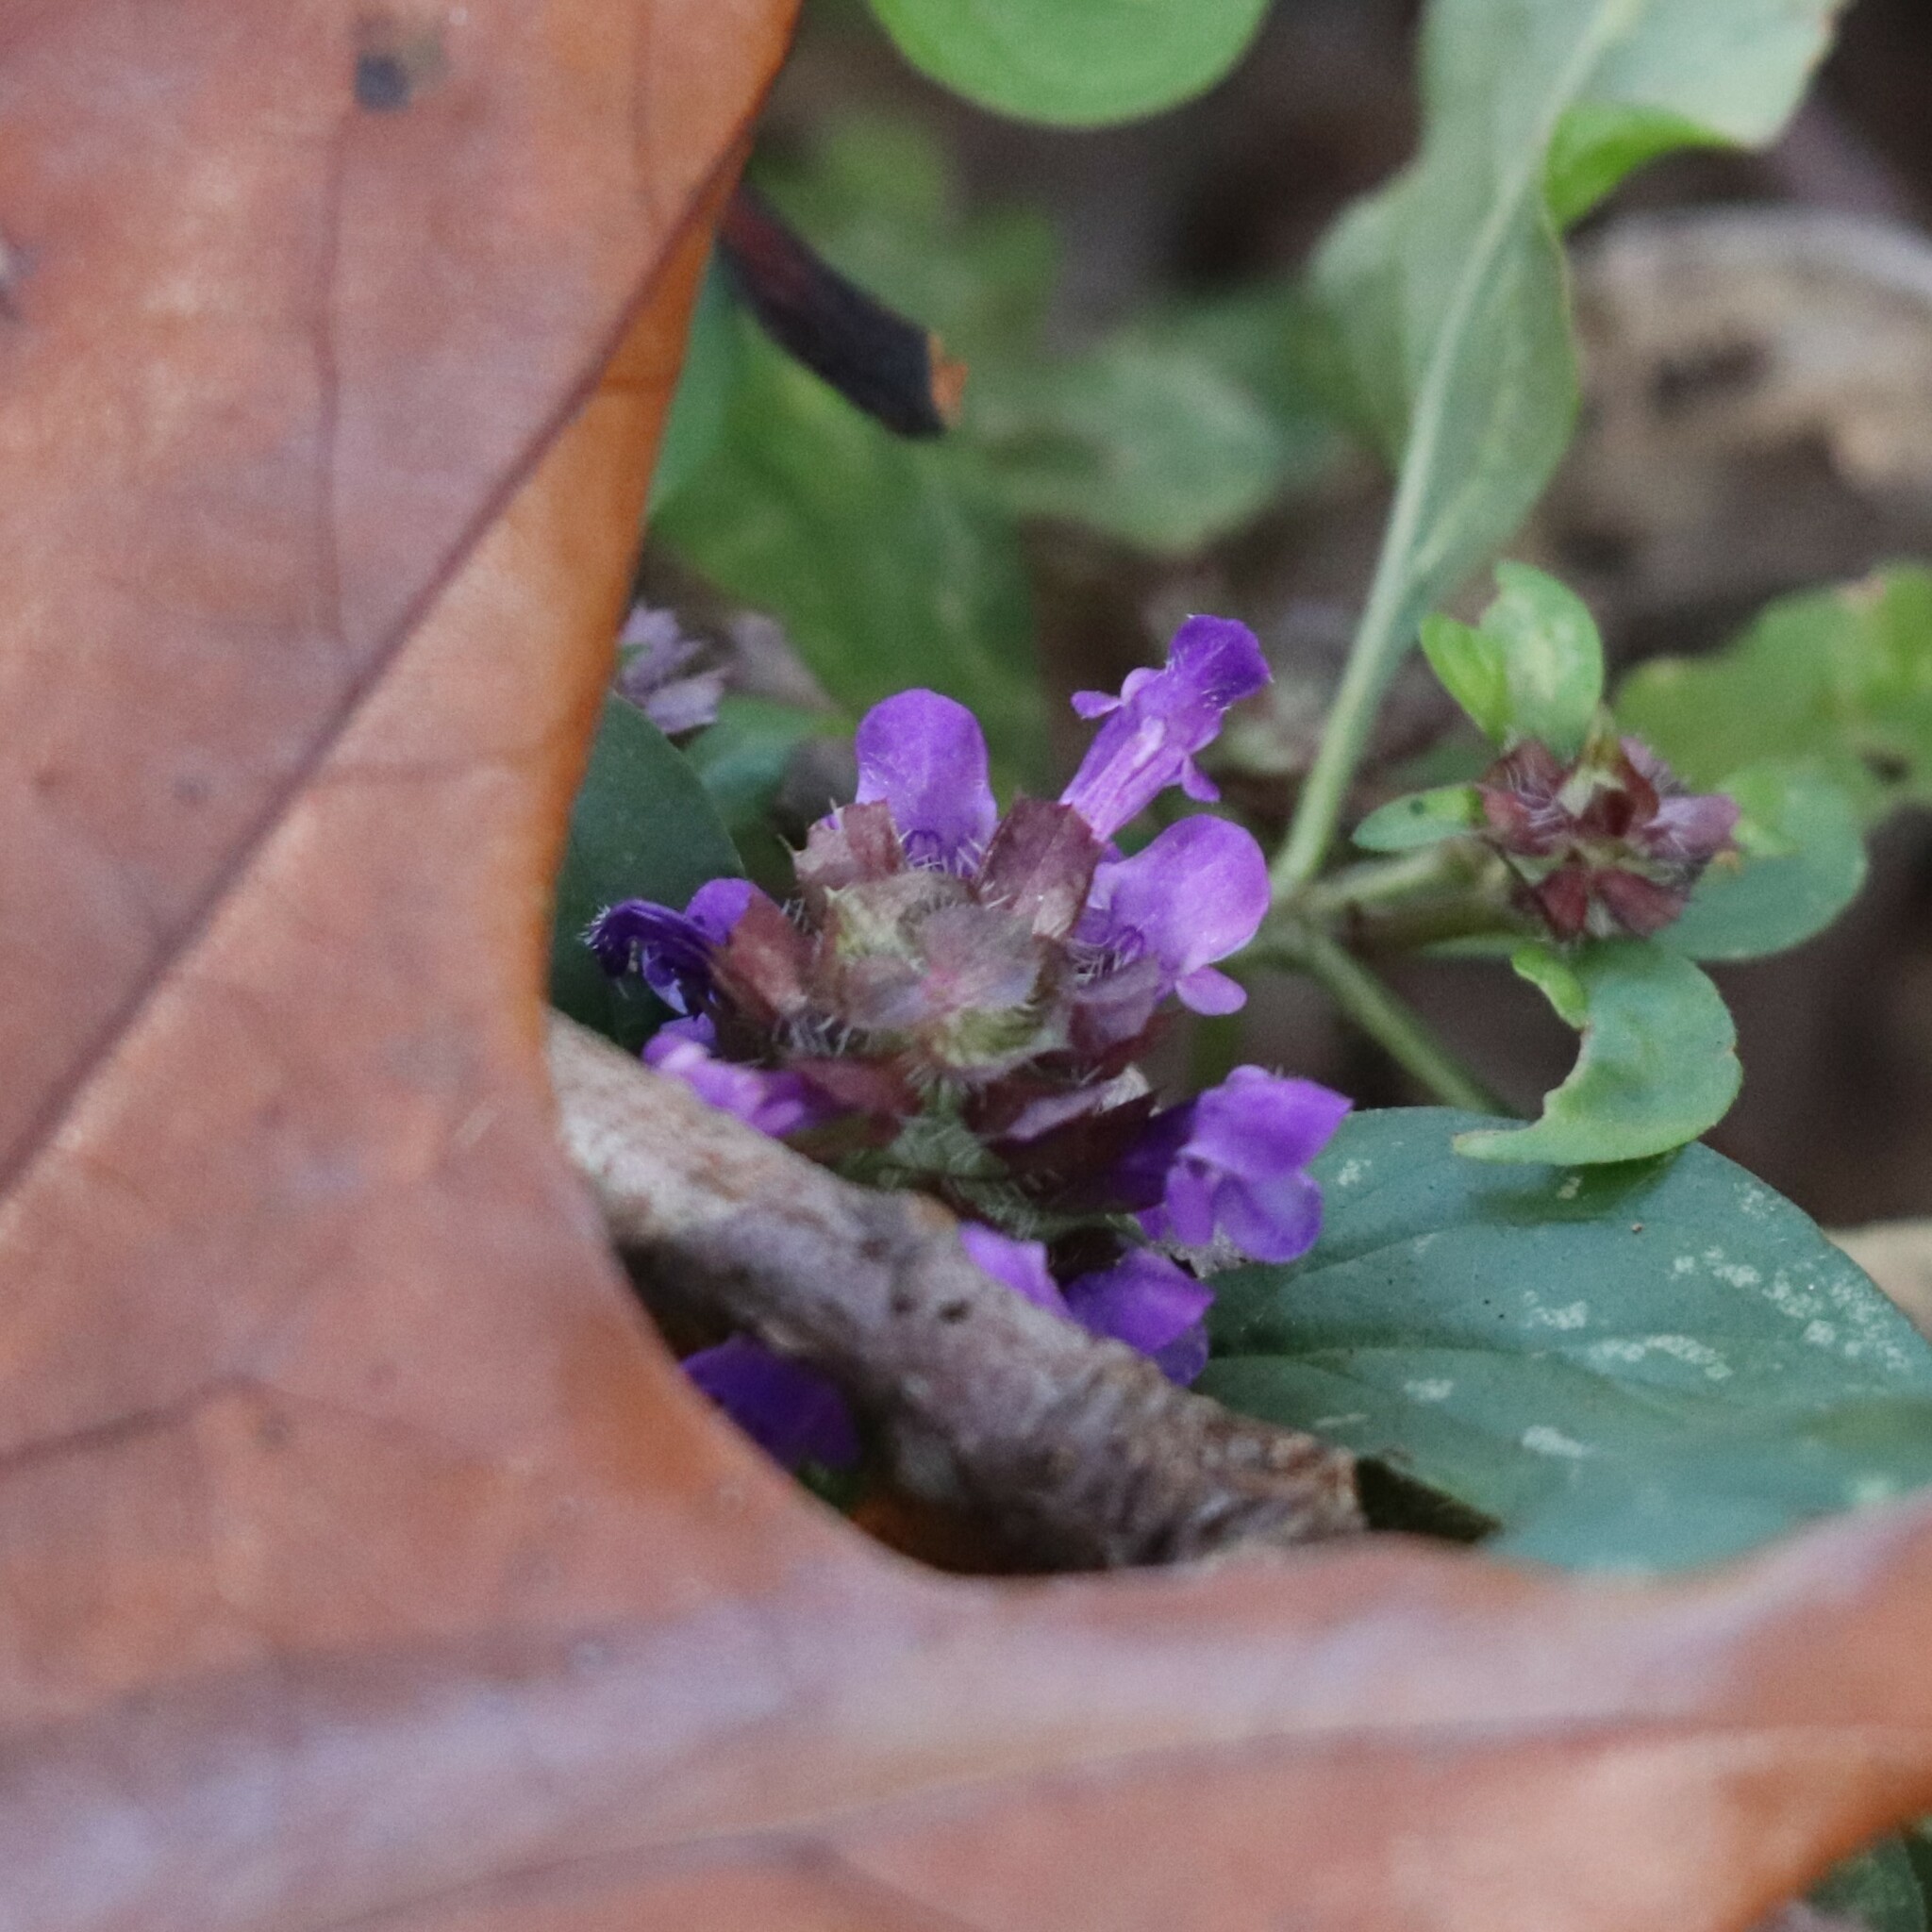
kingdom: Plantae
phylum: Tracheophyta
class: Magnoliopsida
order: Lamiales
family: Lamiaceae
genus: Prunella
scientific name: Prunella vulgaris
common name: Heal-all
